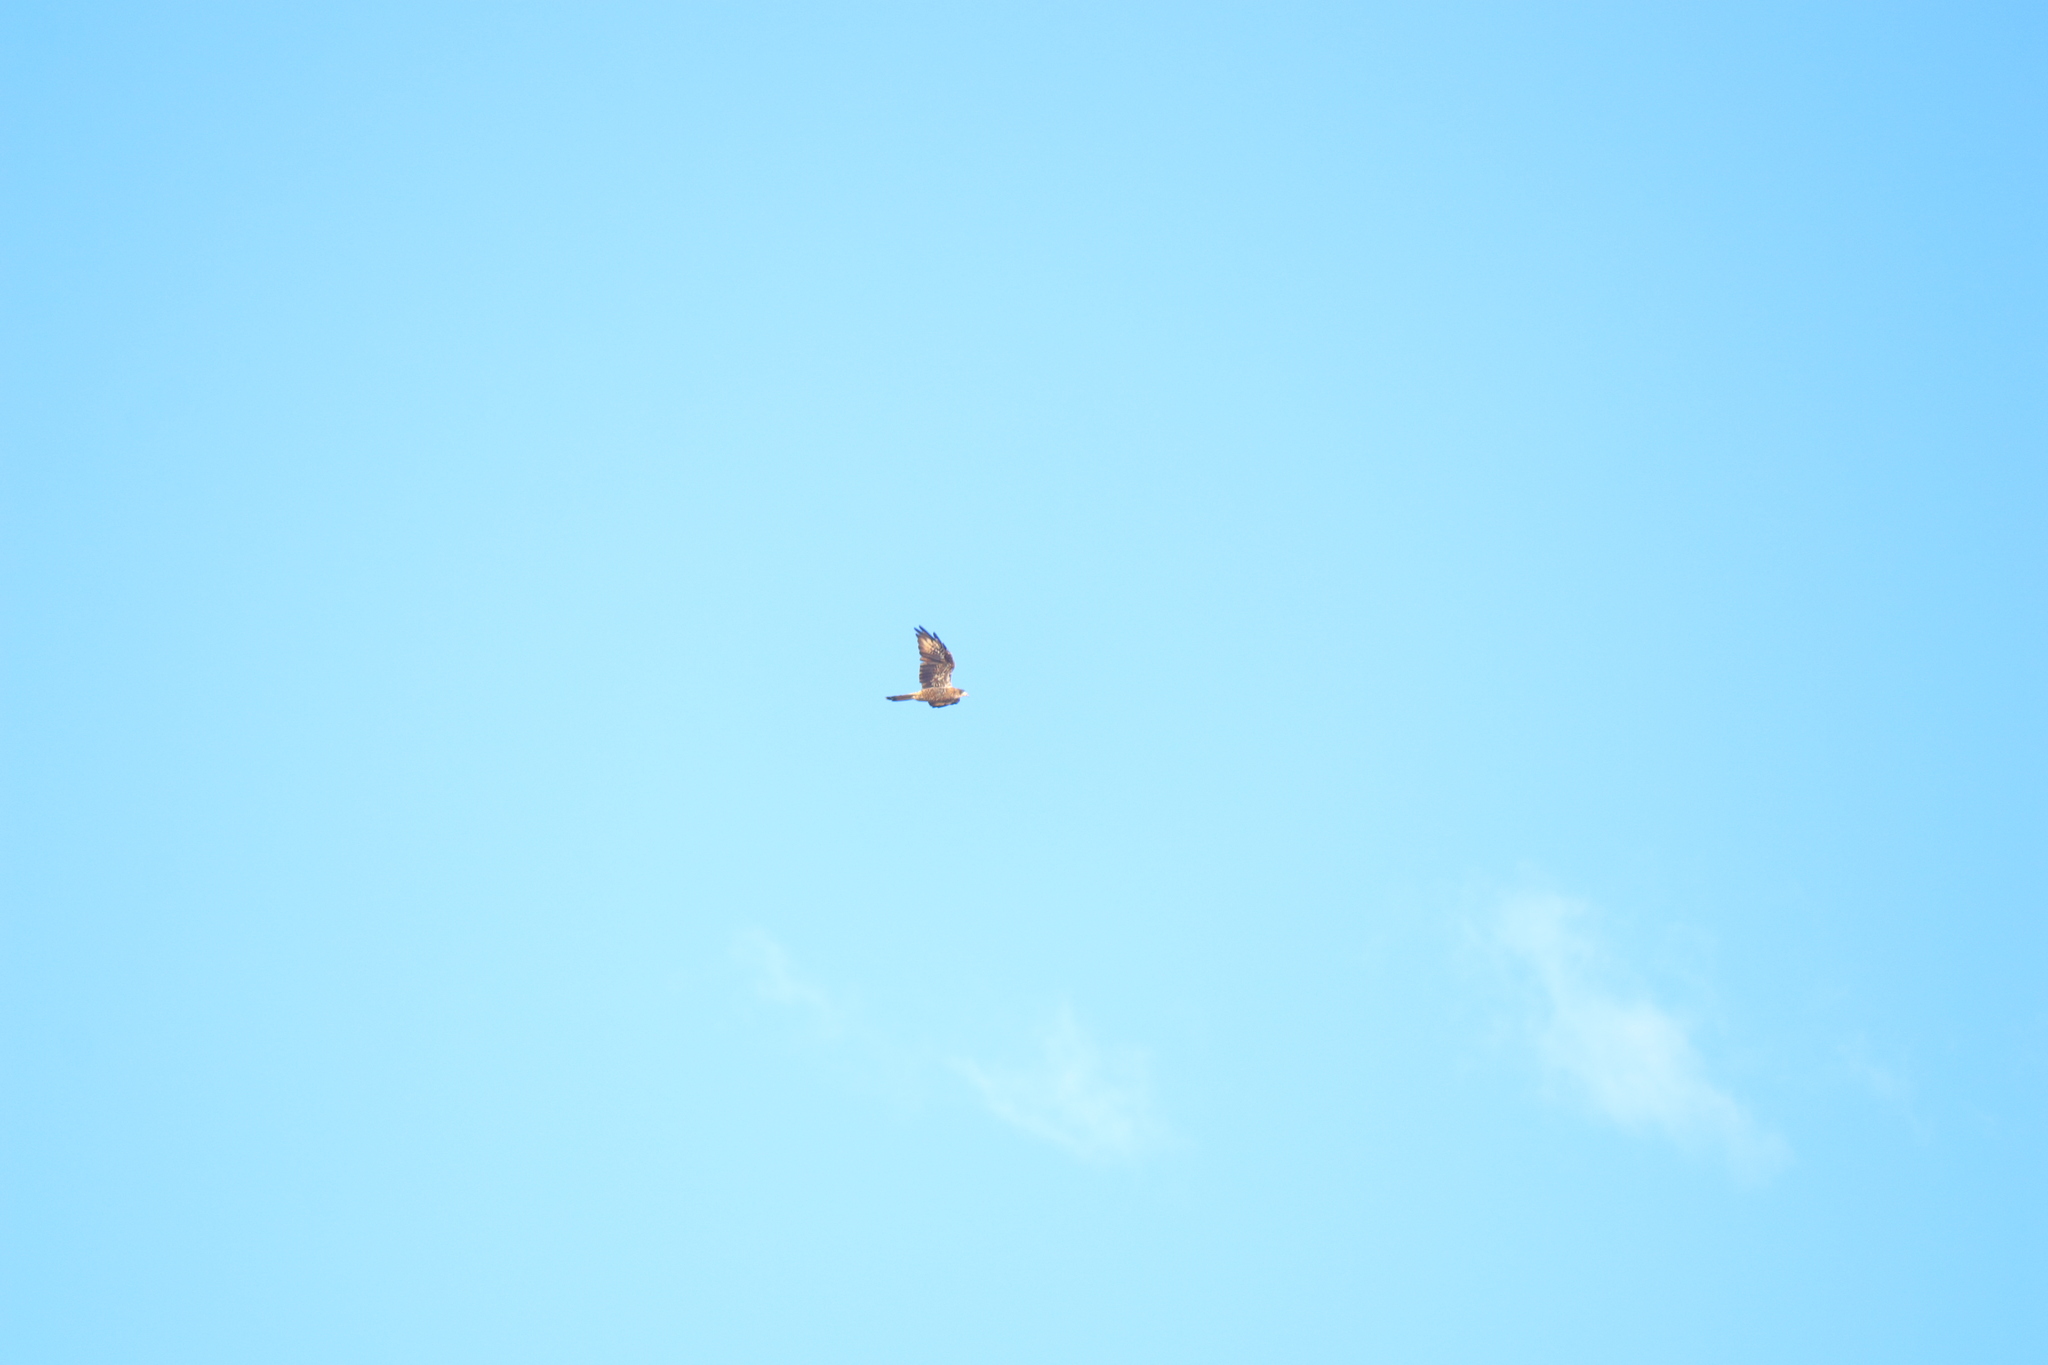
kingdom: Animalia
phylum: Chordata
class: Aves
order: Falconiformes
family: Falconidae
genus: Daptrius
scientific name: Daptrius
